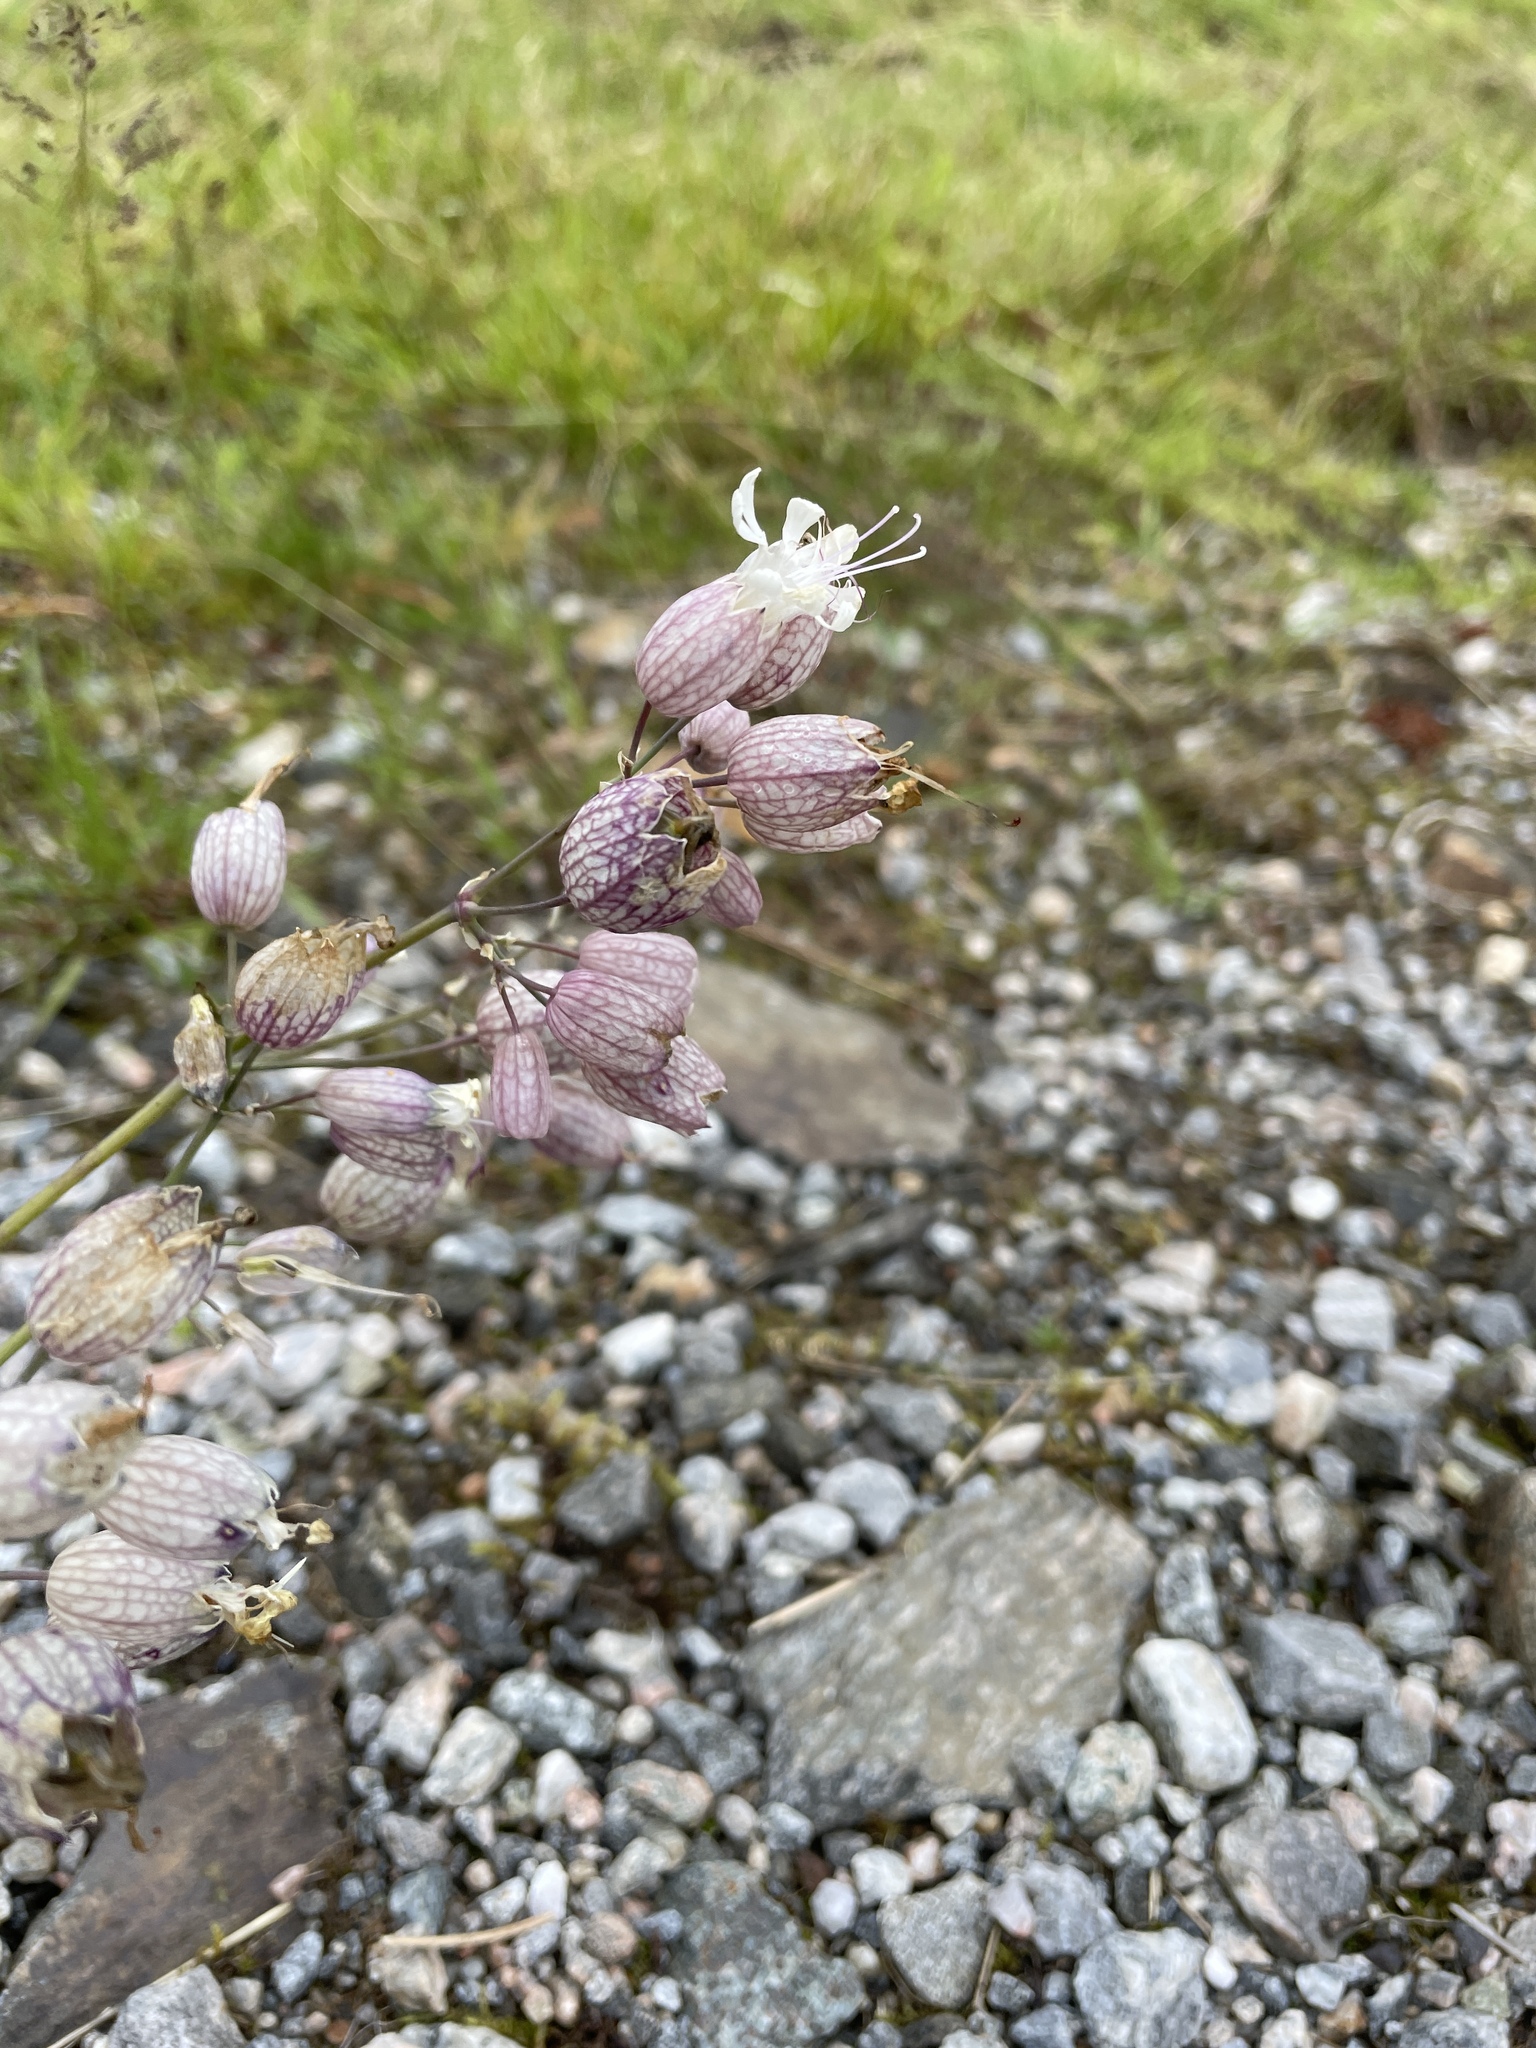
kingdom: Plantae
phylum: Tracheophyta
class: Magnoliopsida
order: Caryophyllales
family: Caryophyllaceae
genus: Silene
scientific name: Silene vulgaris
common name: Bladder campion
